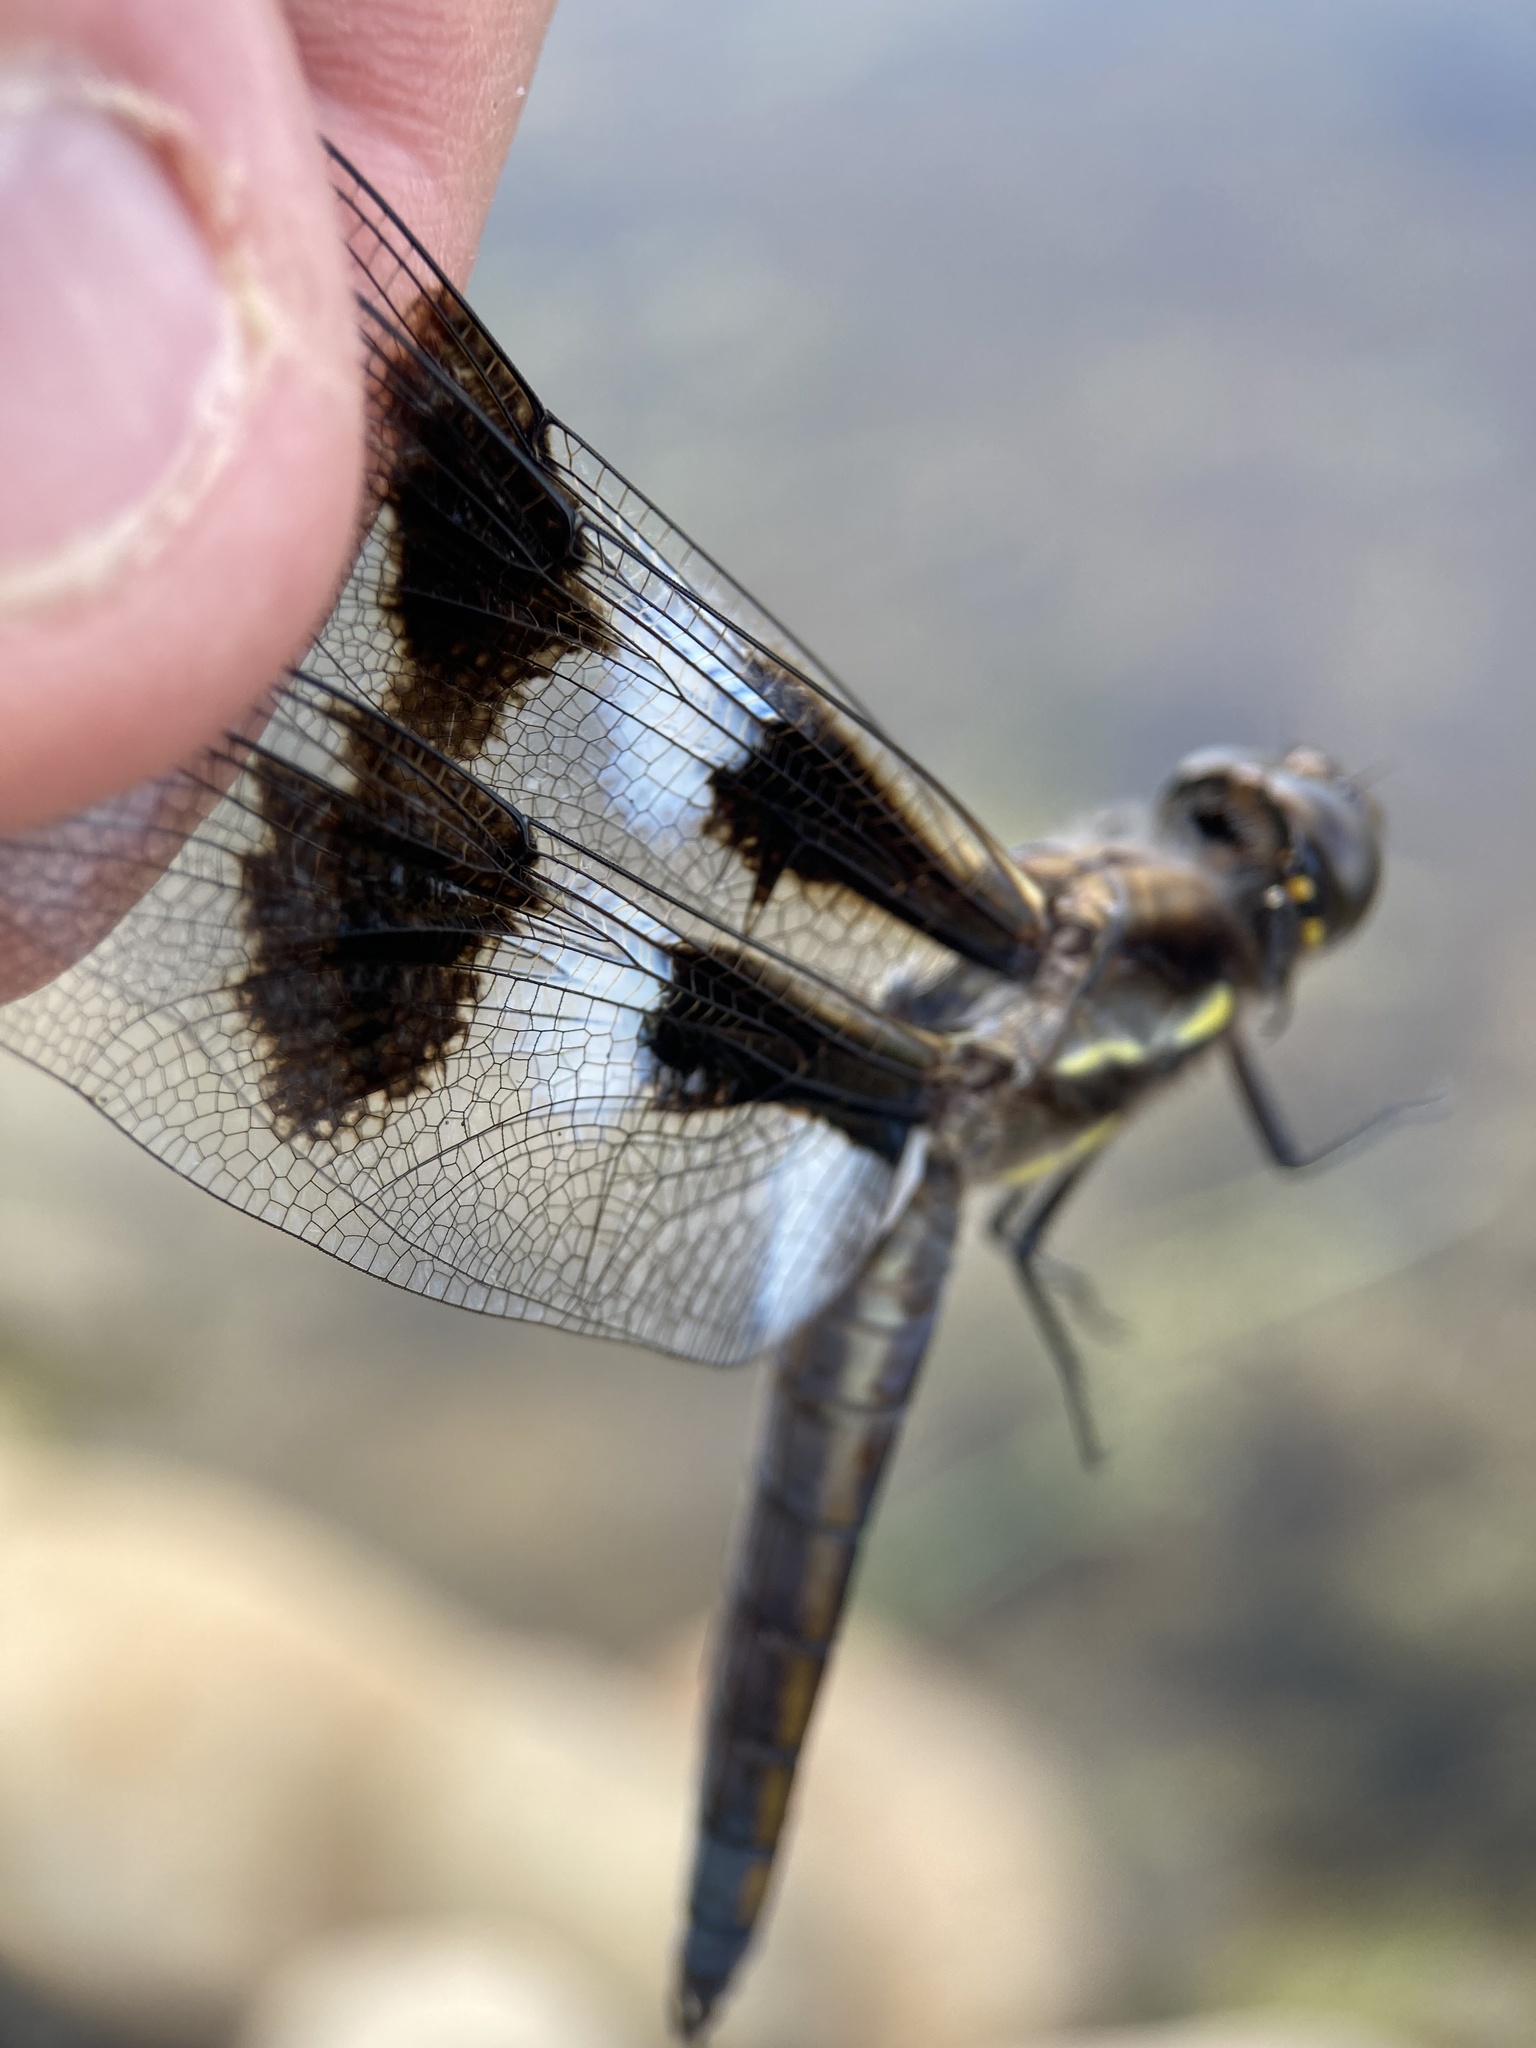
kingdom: Animalia
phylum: Arthropoda
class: Insecta
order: Odonata
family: Libellulidae
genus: Libellula
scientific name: Libellula pulchella
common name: Twelve-spotted skimmer
